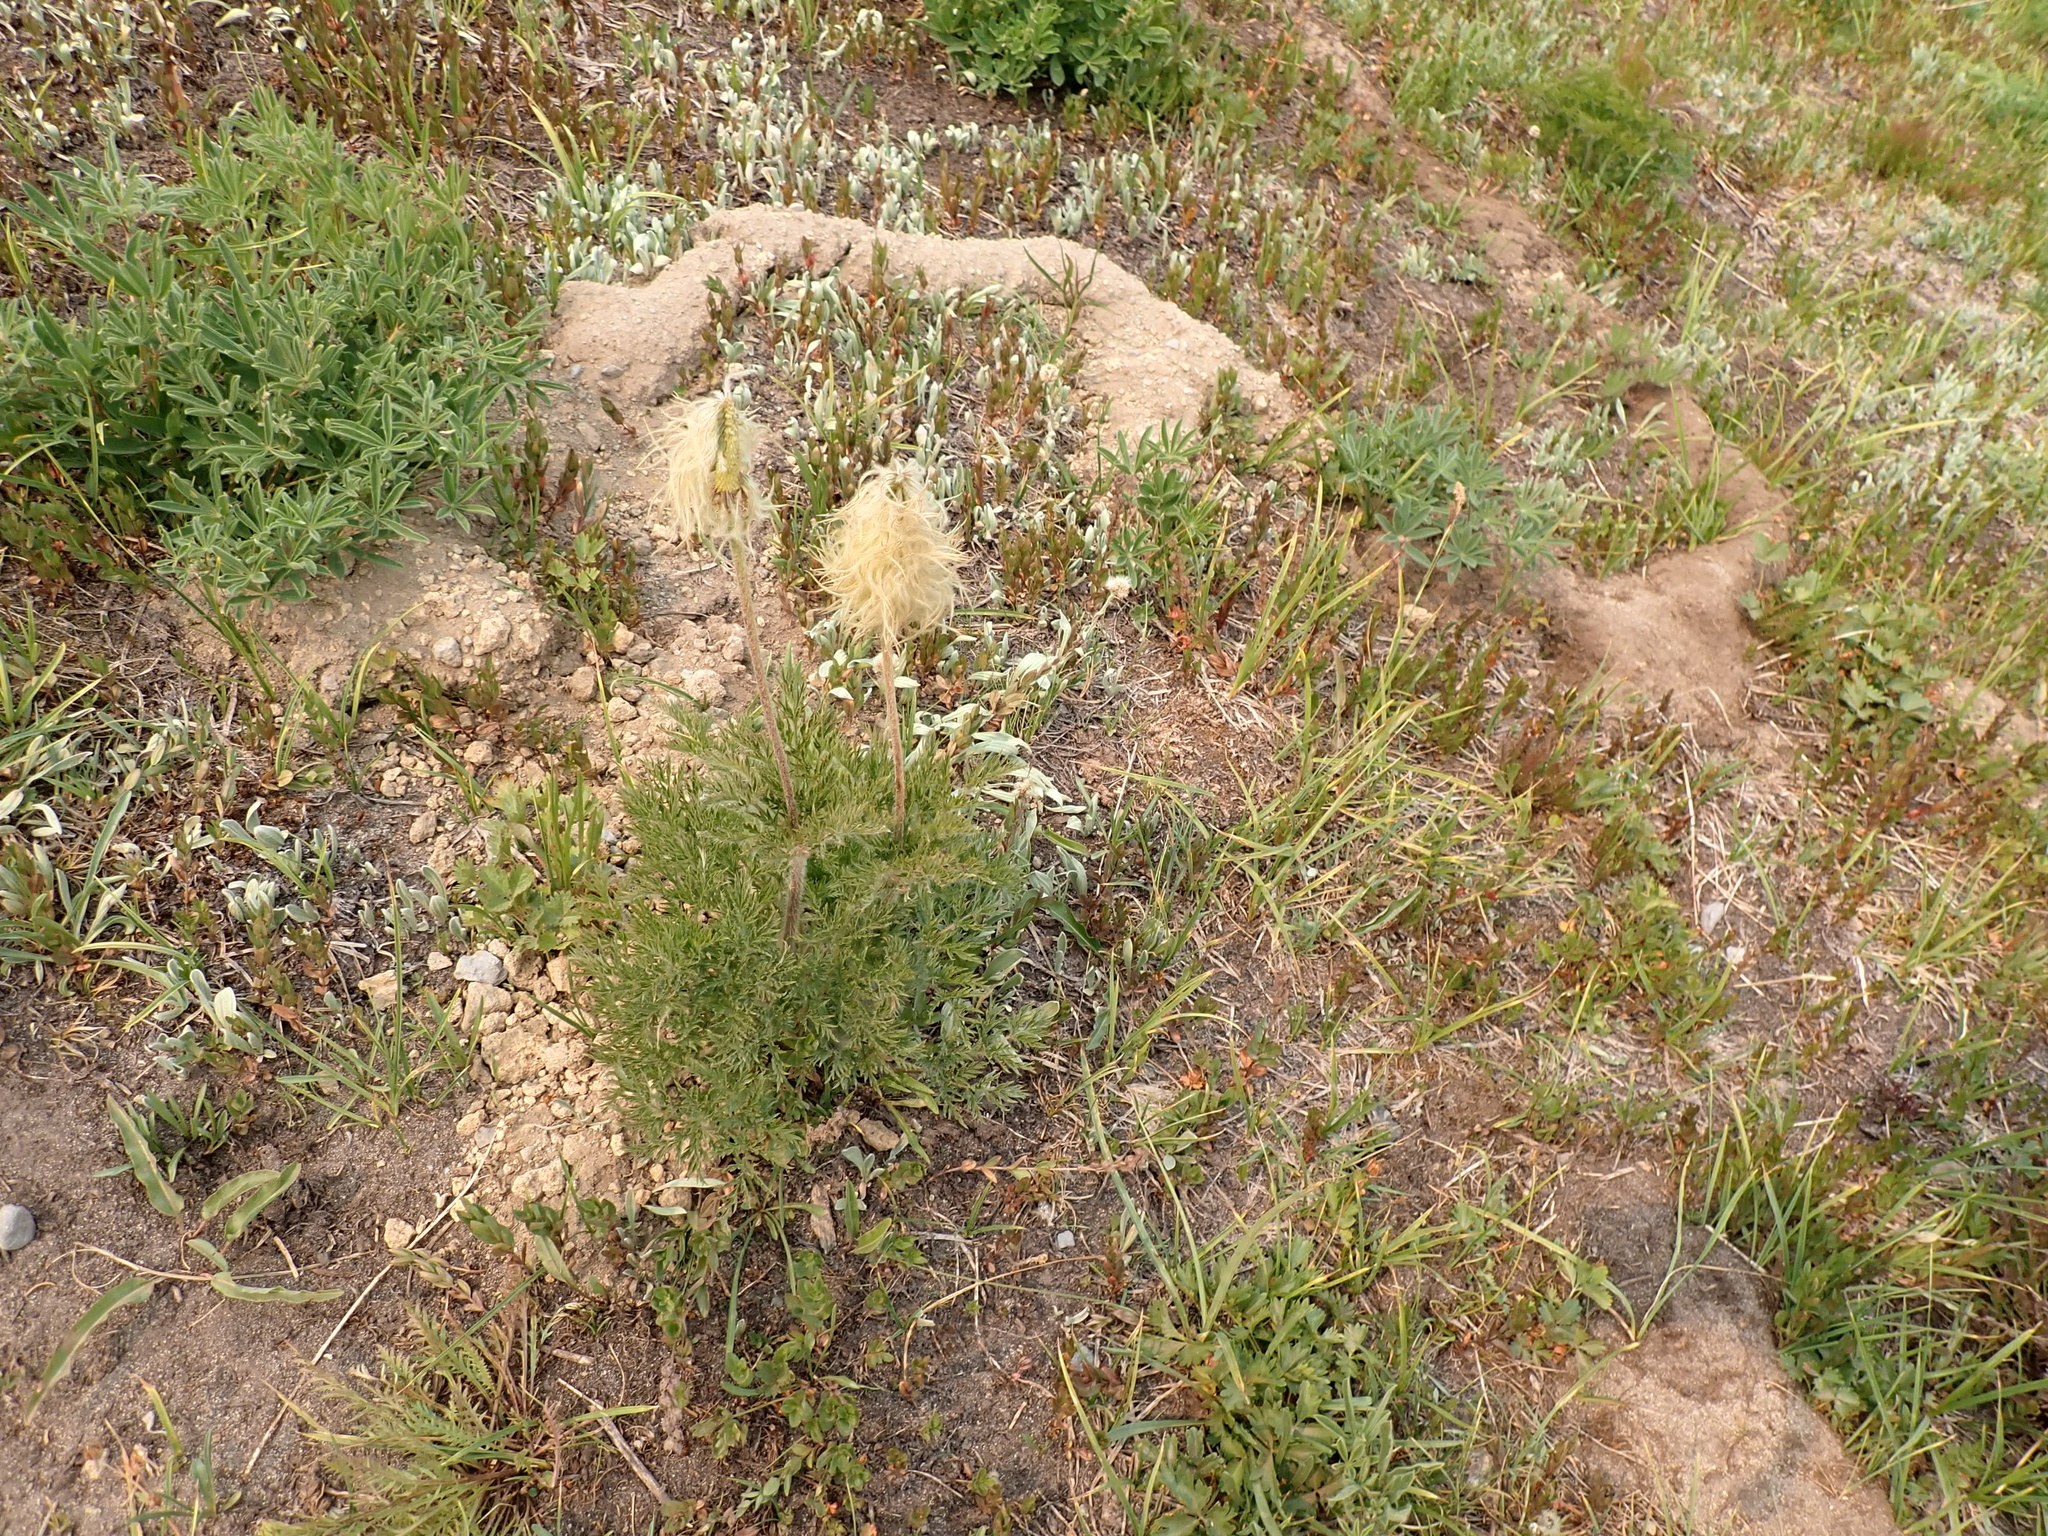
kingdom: Plantae
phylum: Tracheophyta
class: Magnoliopsida
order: Ranunculales
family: Ranunculaceae
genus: Pulsatilla
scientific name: Pulsatilla occidentalis
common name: Mountain pasqueflower
